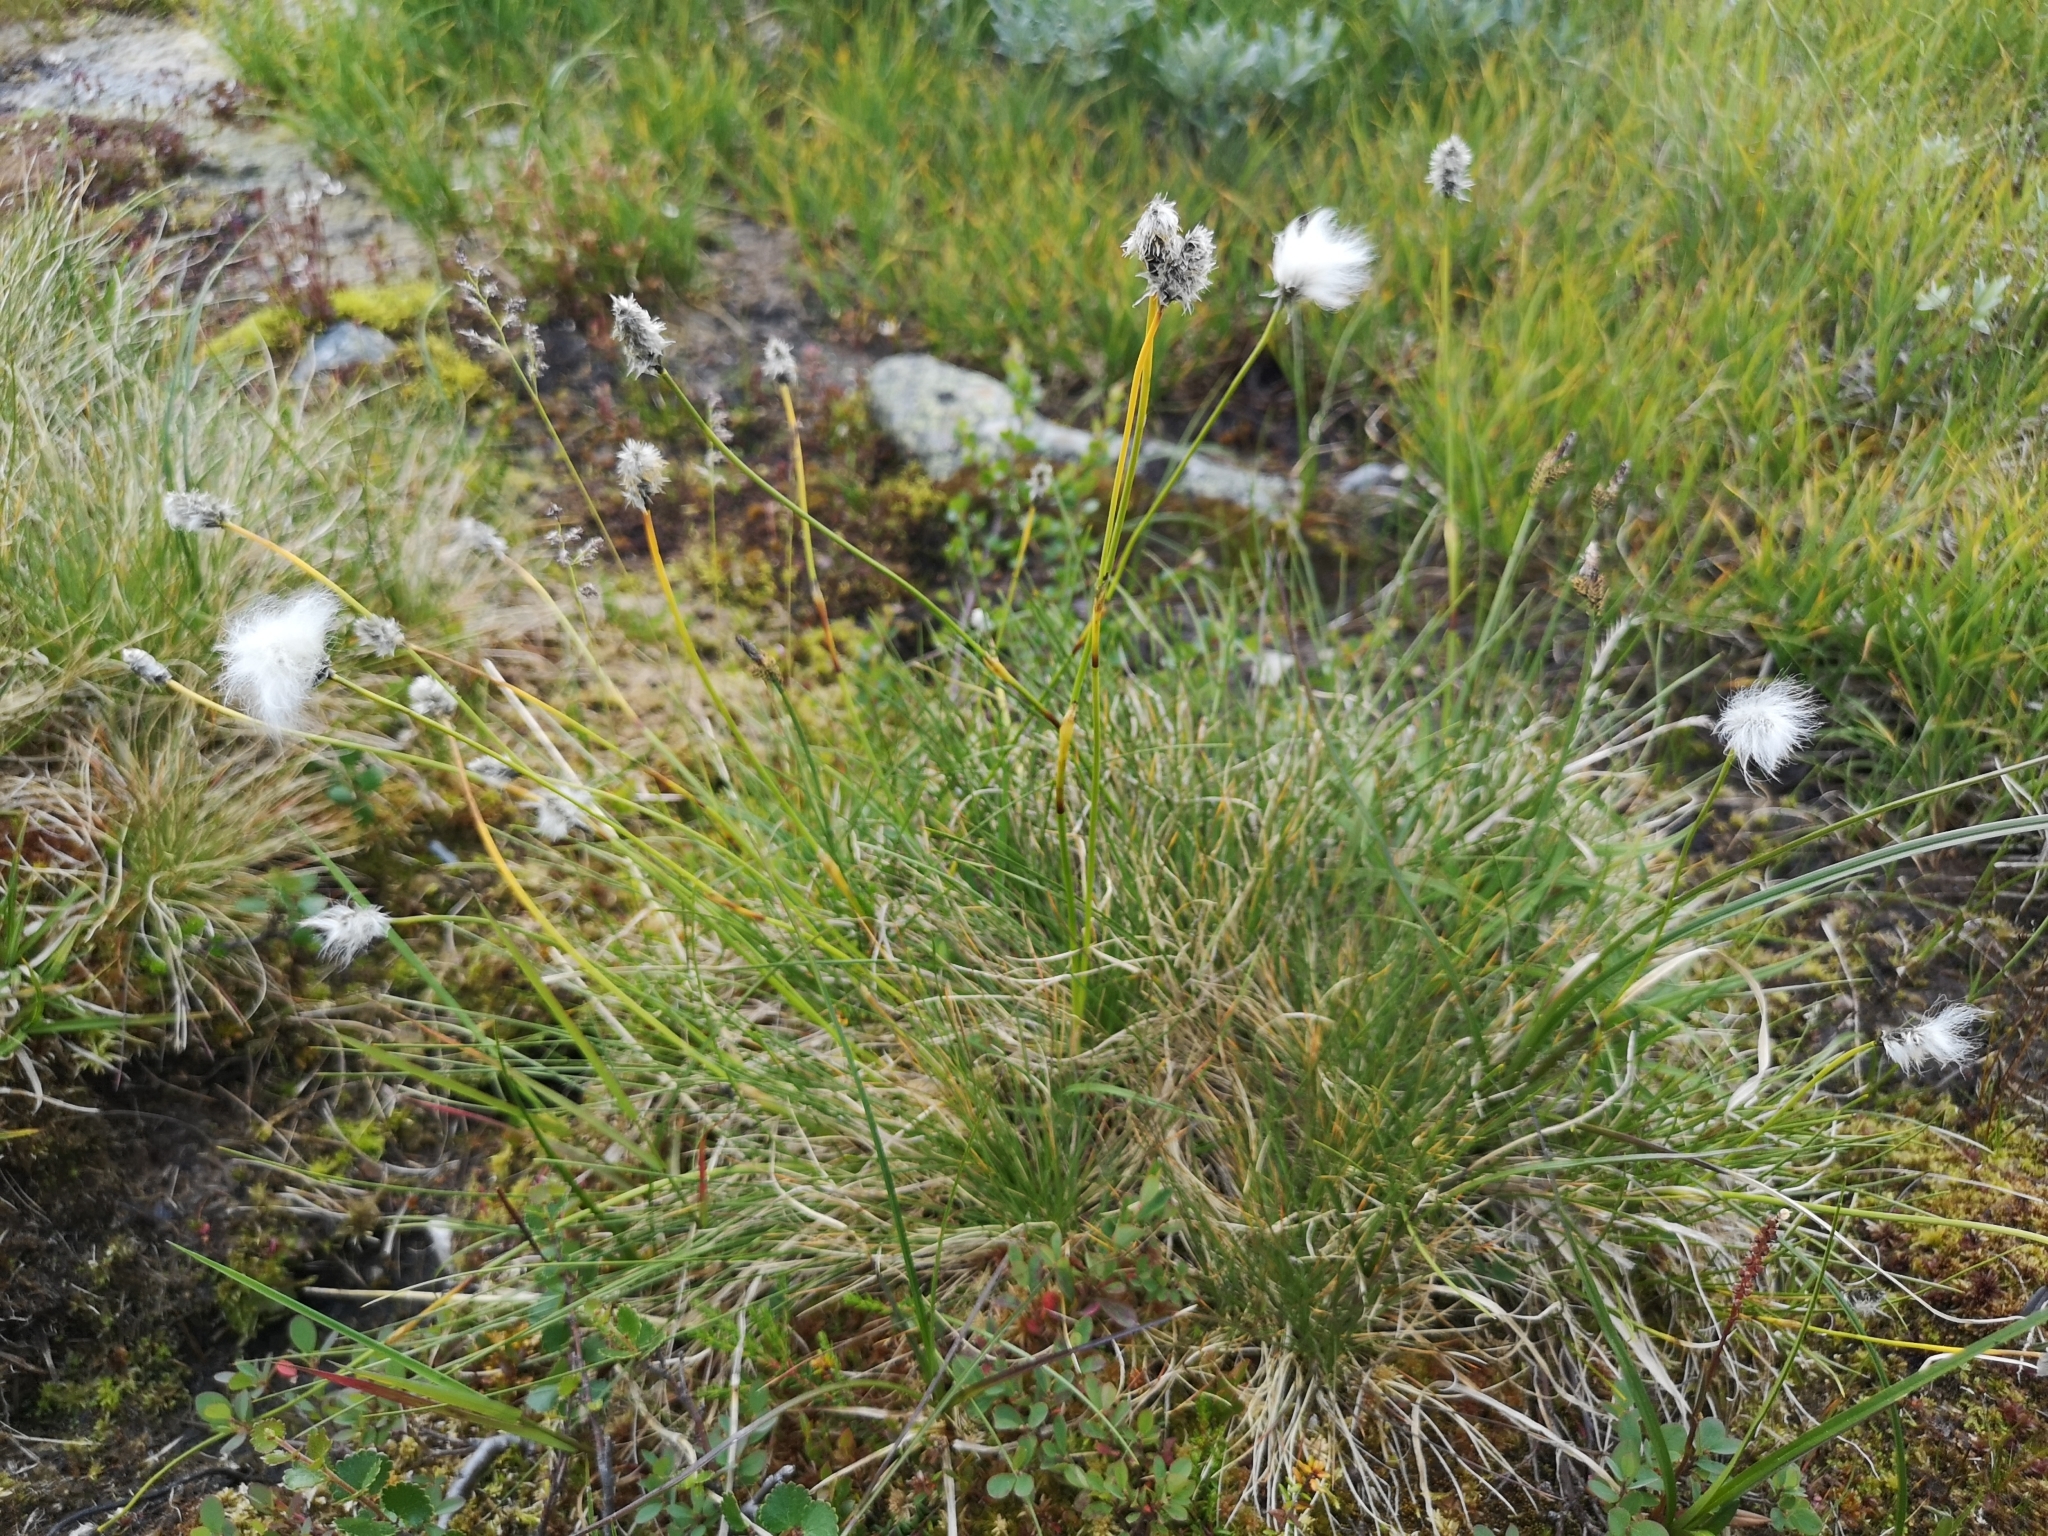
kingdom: Plantae
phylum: Tracheophyta
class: Liliopsida
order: Poales
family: Cyperaceae
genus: Eriophorum
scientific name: Eriophorum vaginatum
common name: Hare's-tail cottongrass
